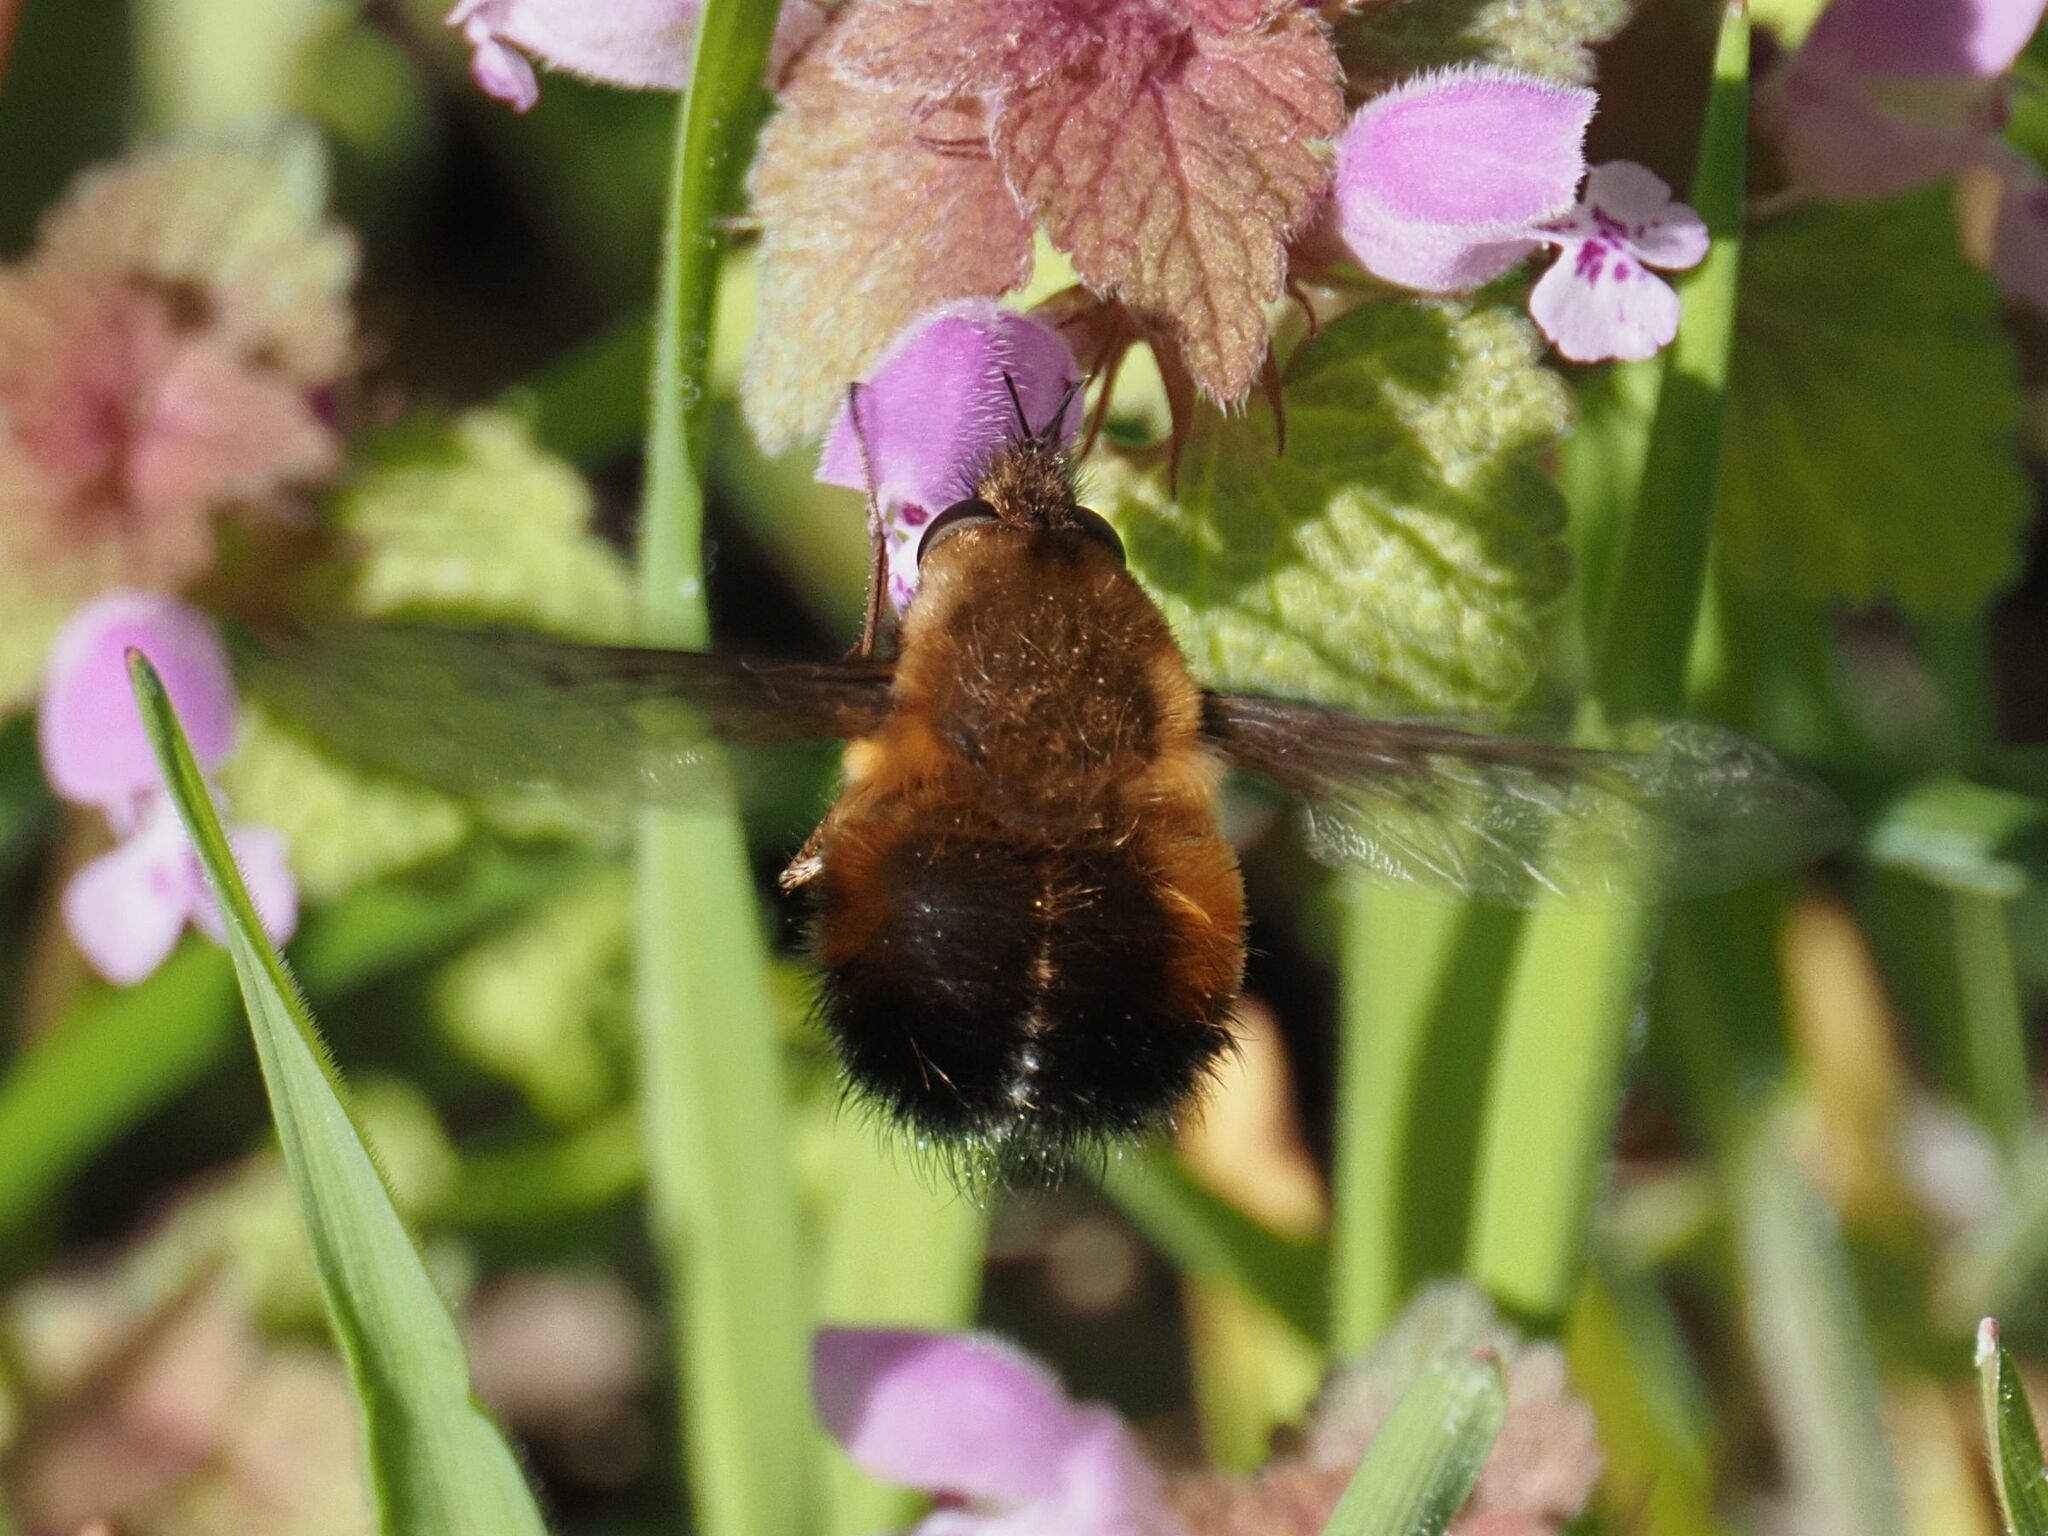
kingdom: Animalia
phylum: Arthropoda
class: Insecta
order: Diptera
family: Bombyliidae
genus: Bombylius
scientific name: Bombylius discolor
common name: Dotted bee-fly
